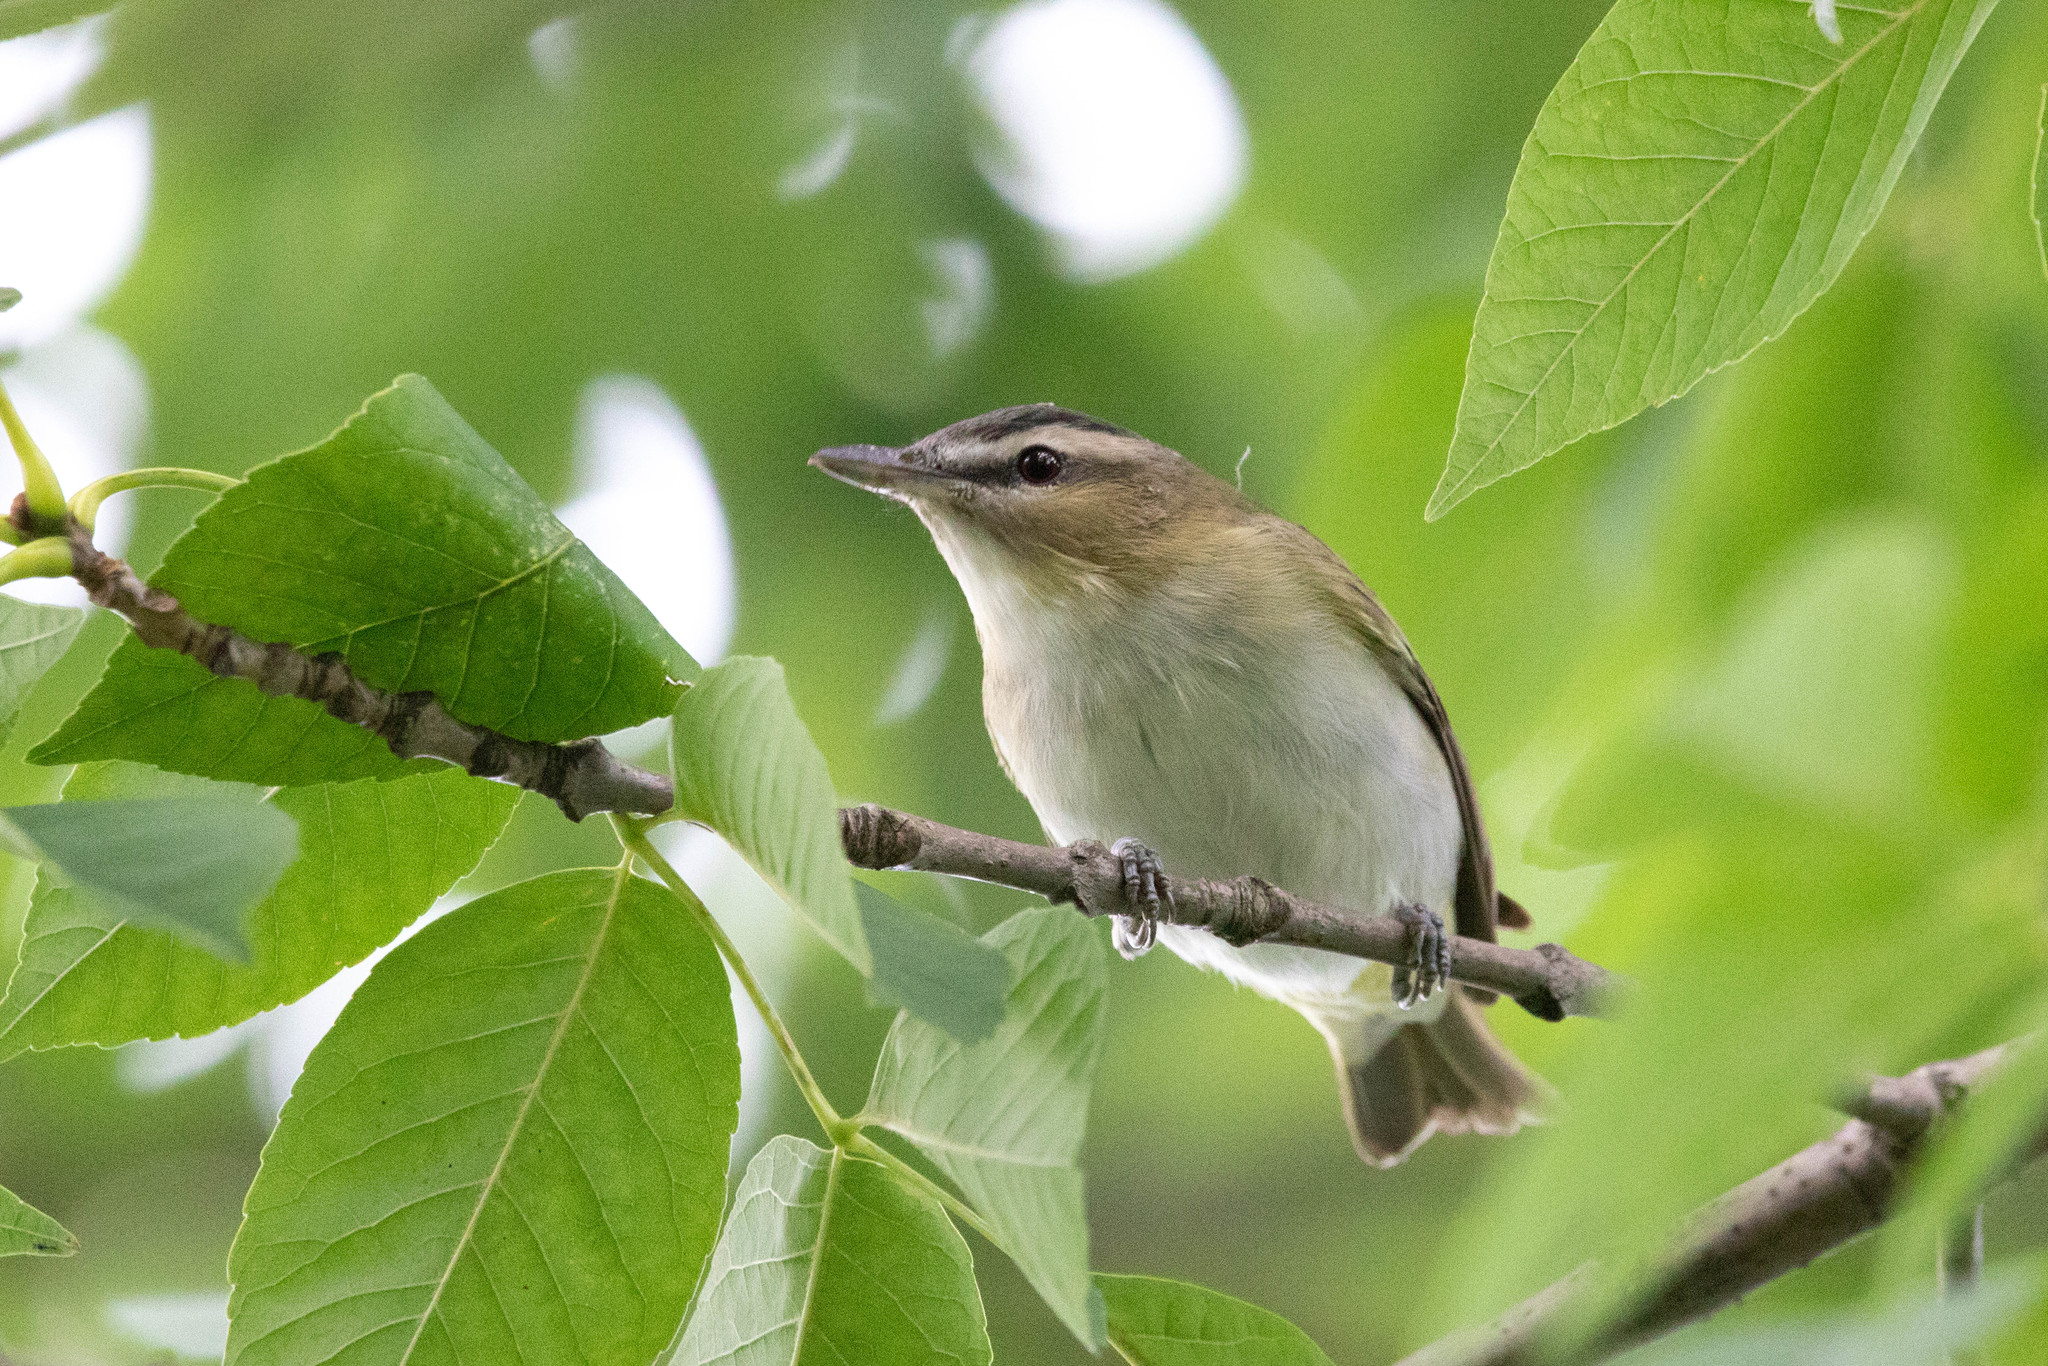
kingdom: Animalia
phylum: Chordata
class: Aves
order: Passeriformes
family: Vireonidae
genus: Vireo
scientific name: Vireo olivaceus
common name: Red-eyed vireo
